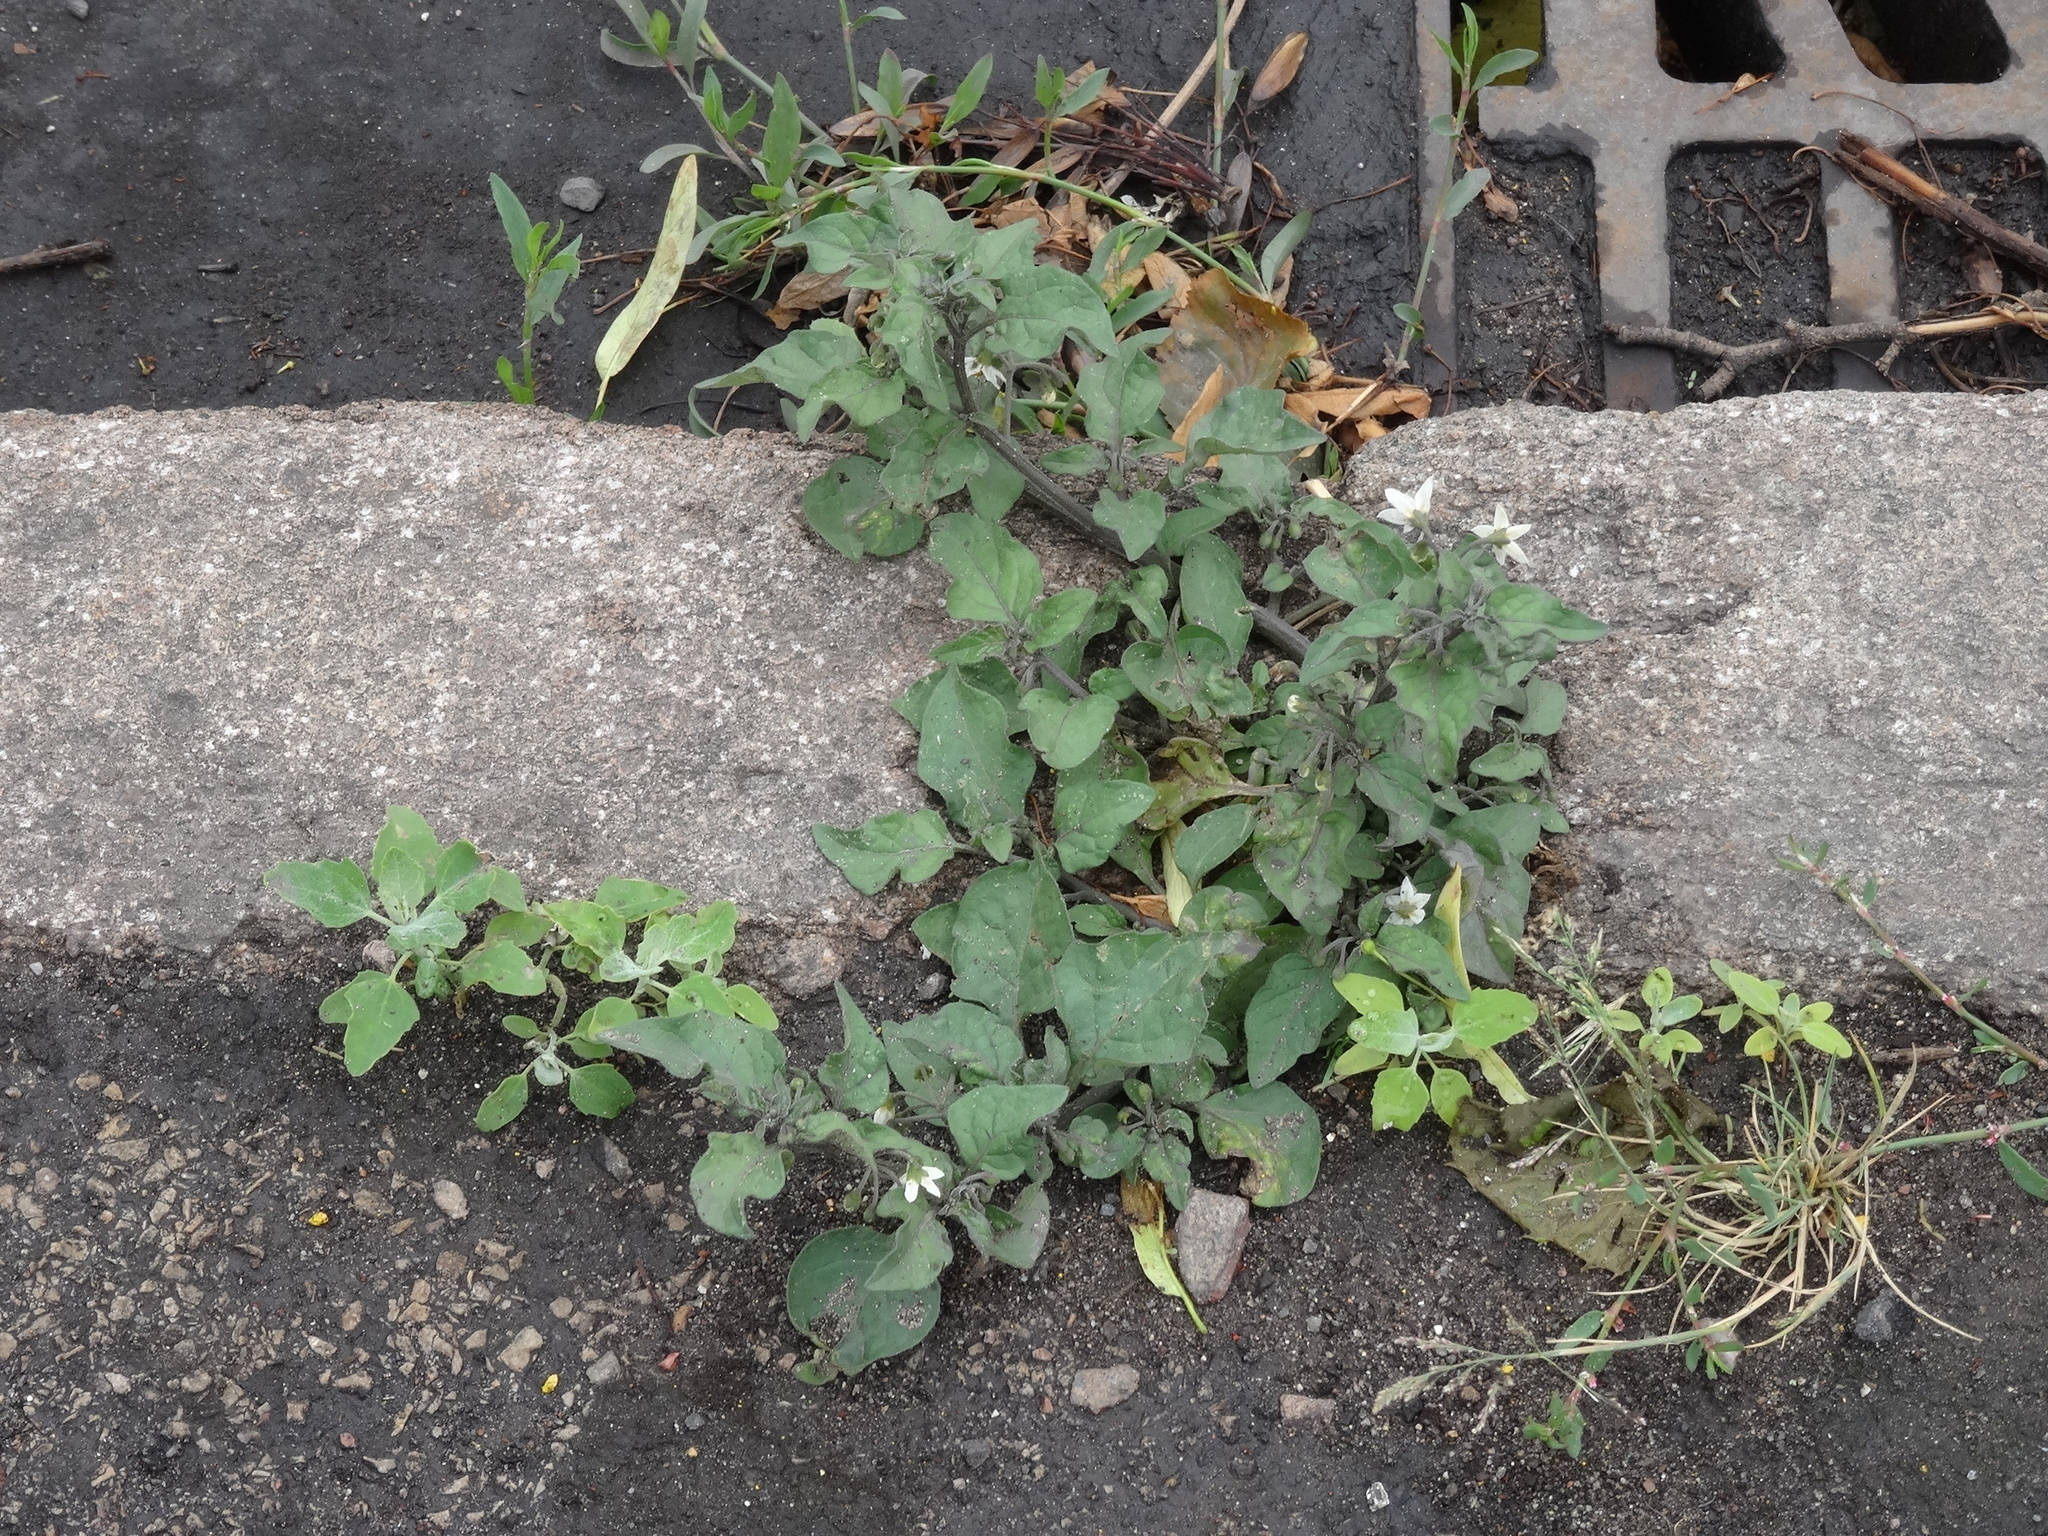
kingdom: Plantae
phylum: Tracheophyta
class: Magnoliopsida
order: Solanales
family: Solanaceae
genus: Solanum
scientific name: Solanum nigrum
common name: Black nightshade
